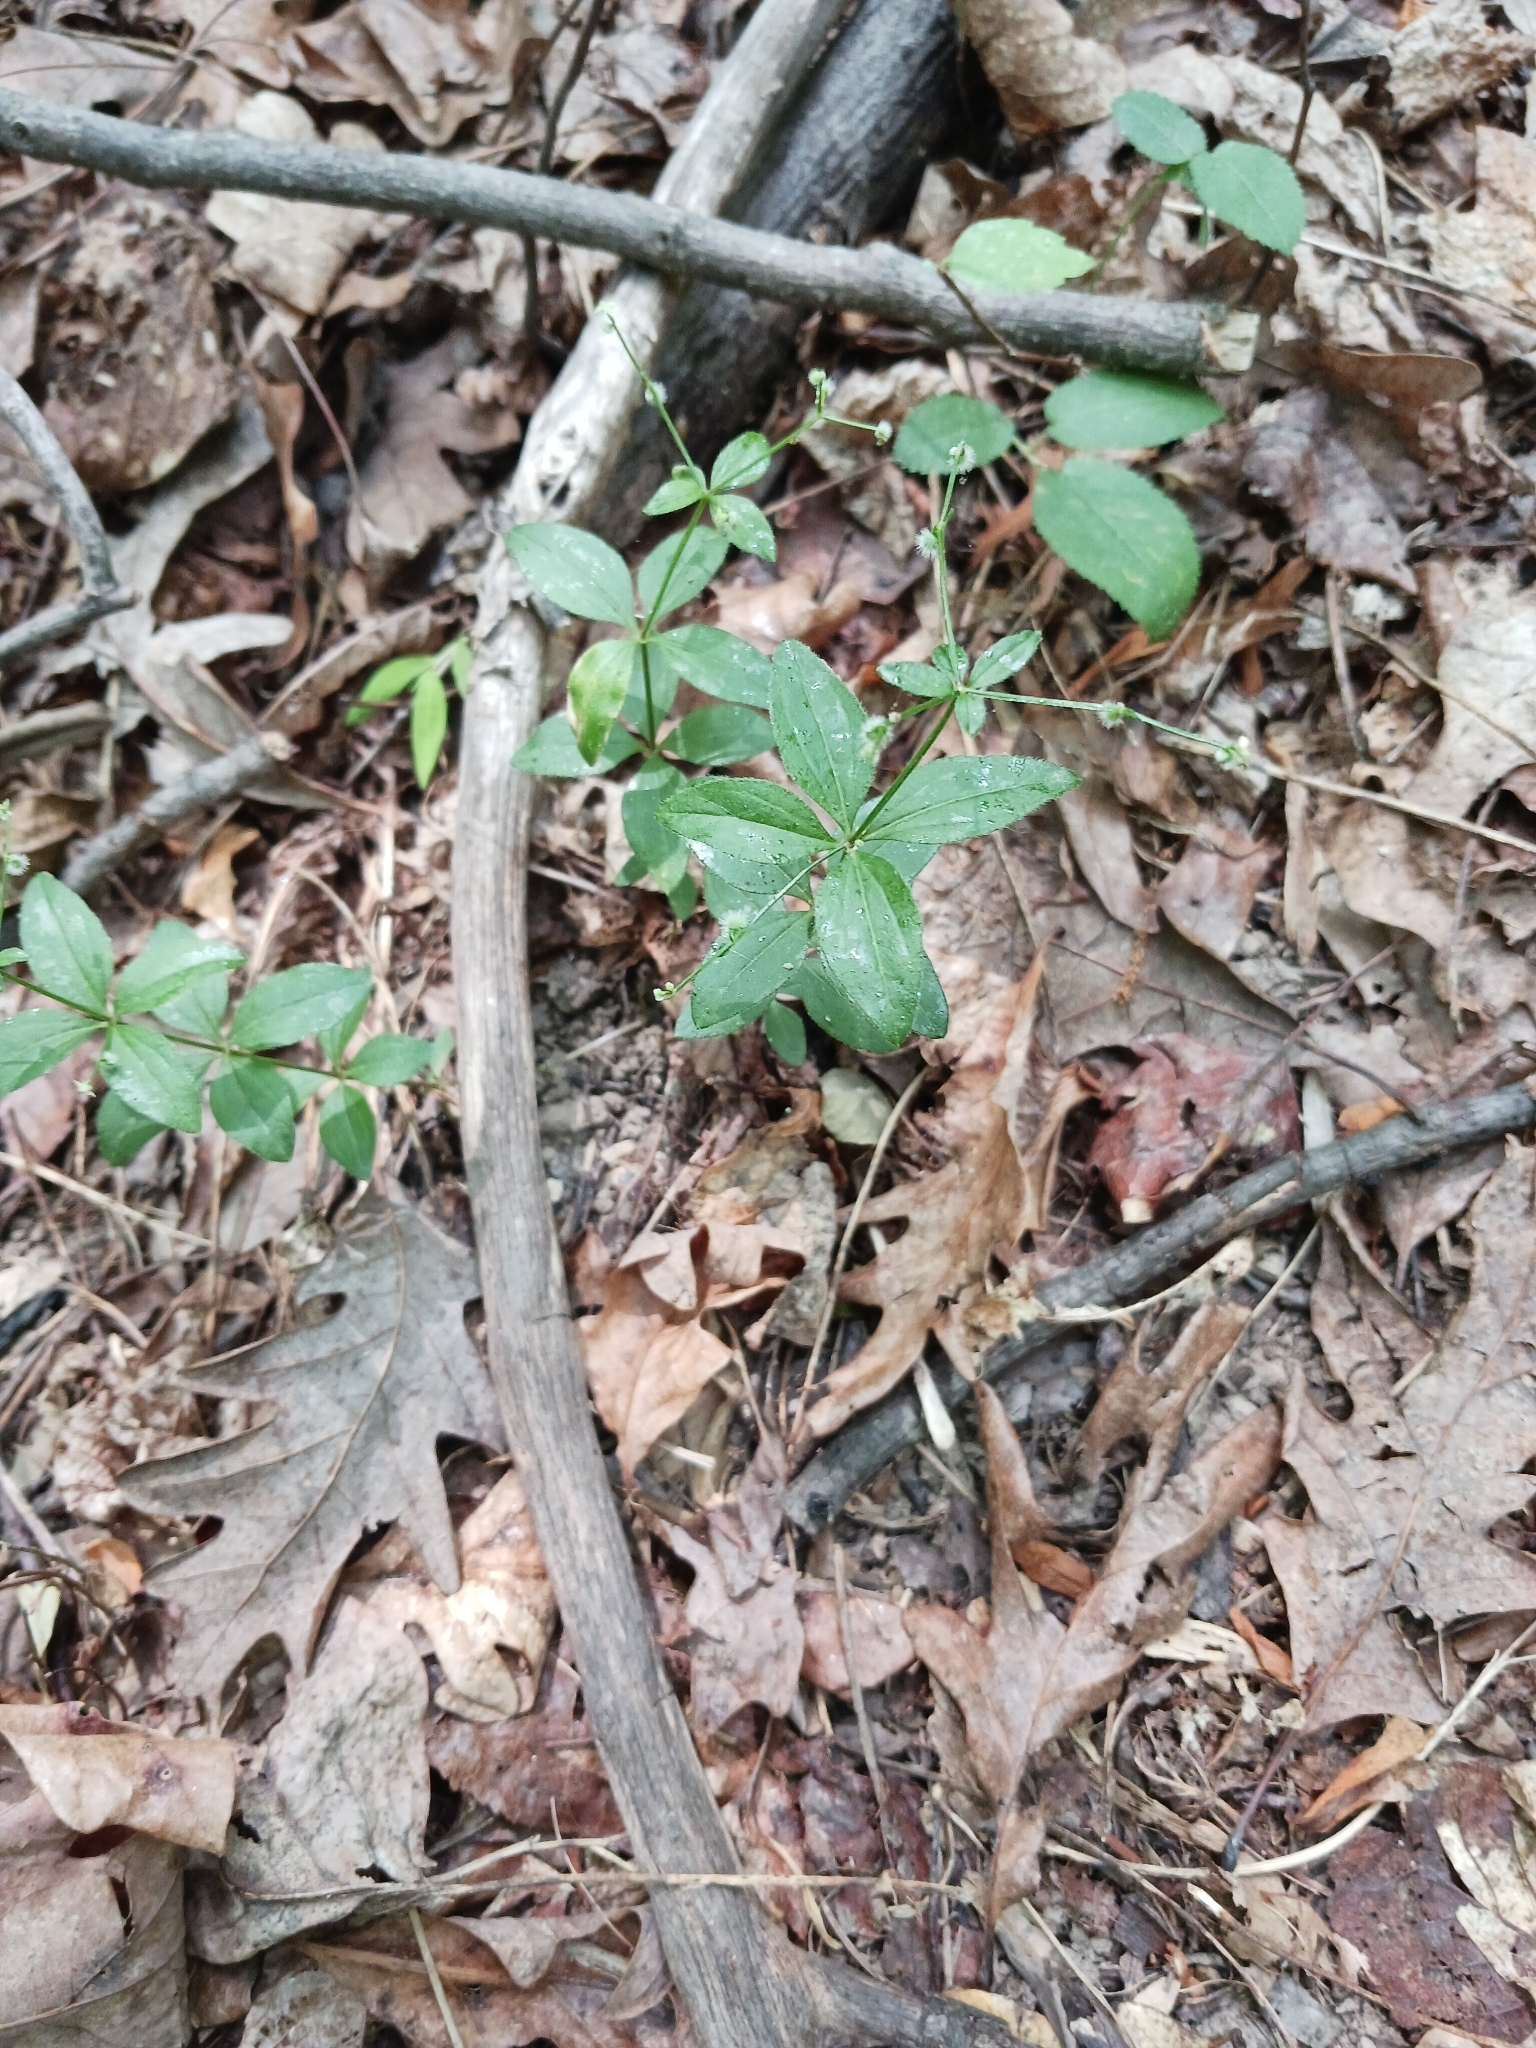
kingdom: Plantae
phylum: Tracheophyta
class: Magnoliopsida
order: Gentianales
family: Rubiaceae
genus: Galium
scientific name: Galium circaezans
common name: Forest bedstraw
